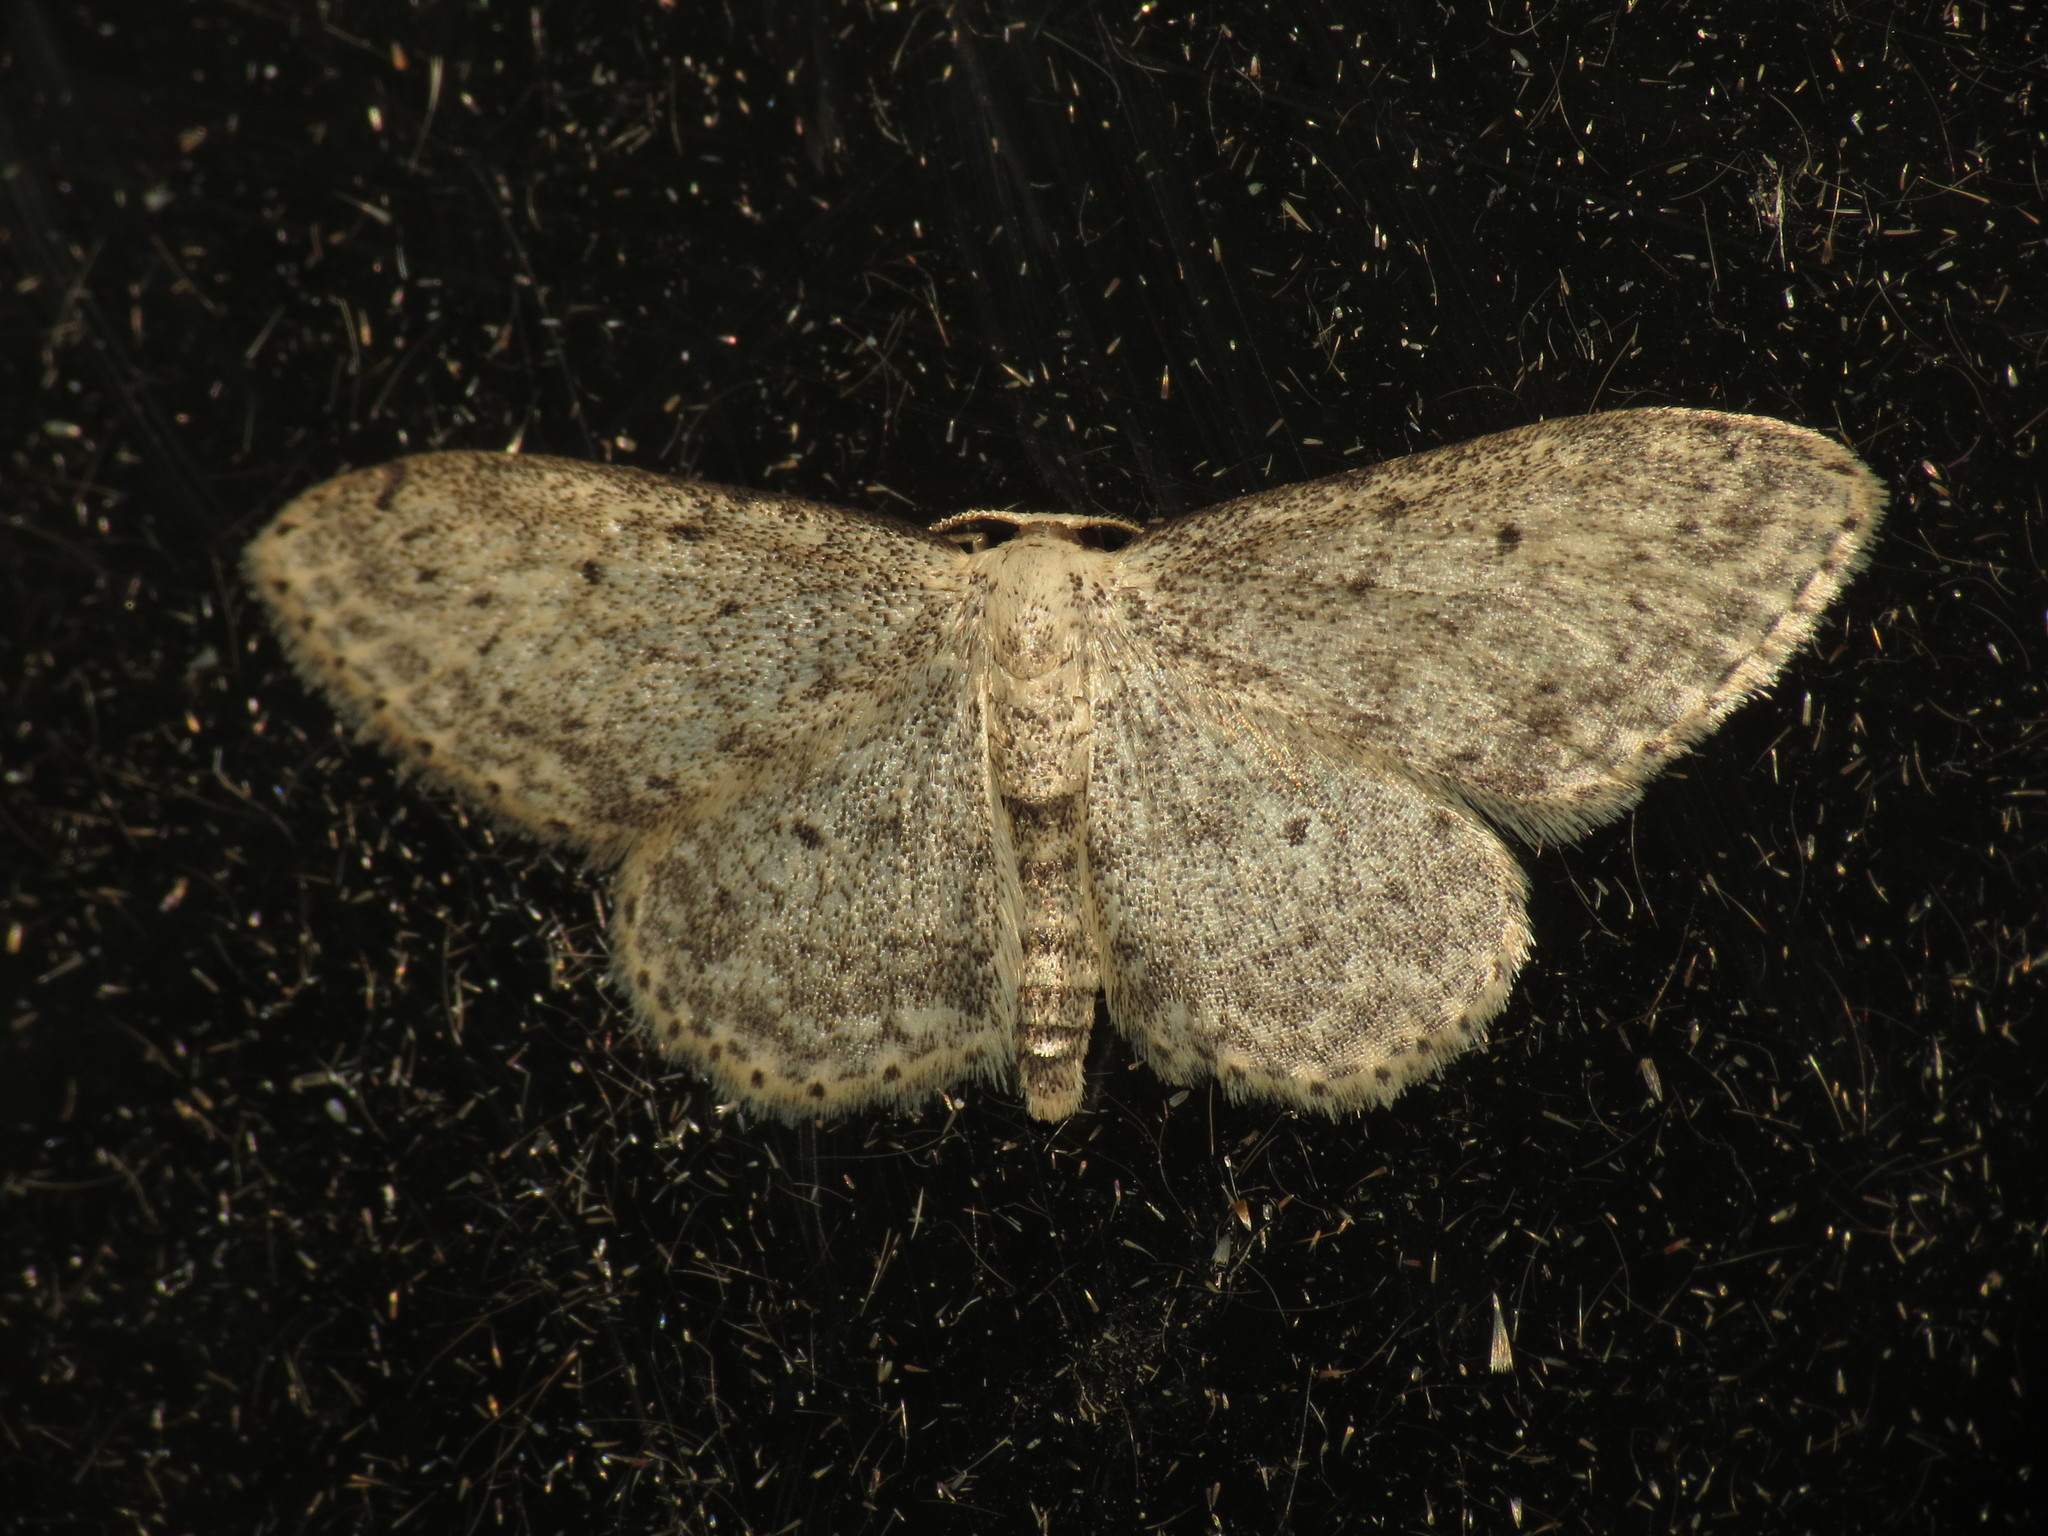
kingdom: Animalia
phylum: Arthropoda
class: Insecta
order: Lepidoptera
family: Geometridae
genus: Idaea
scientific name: Idaea seriata
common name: Small dusty wave
